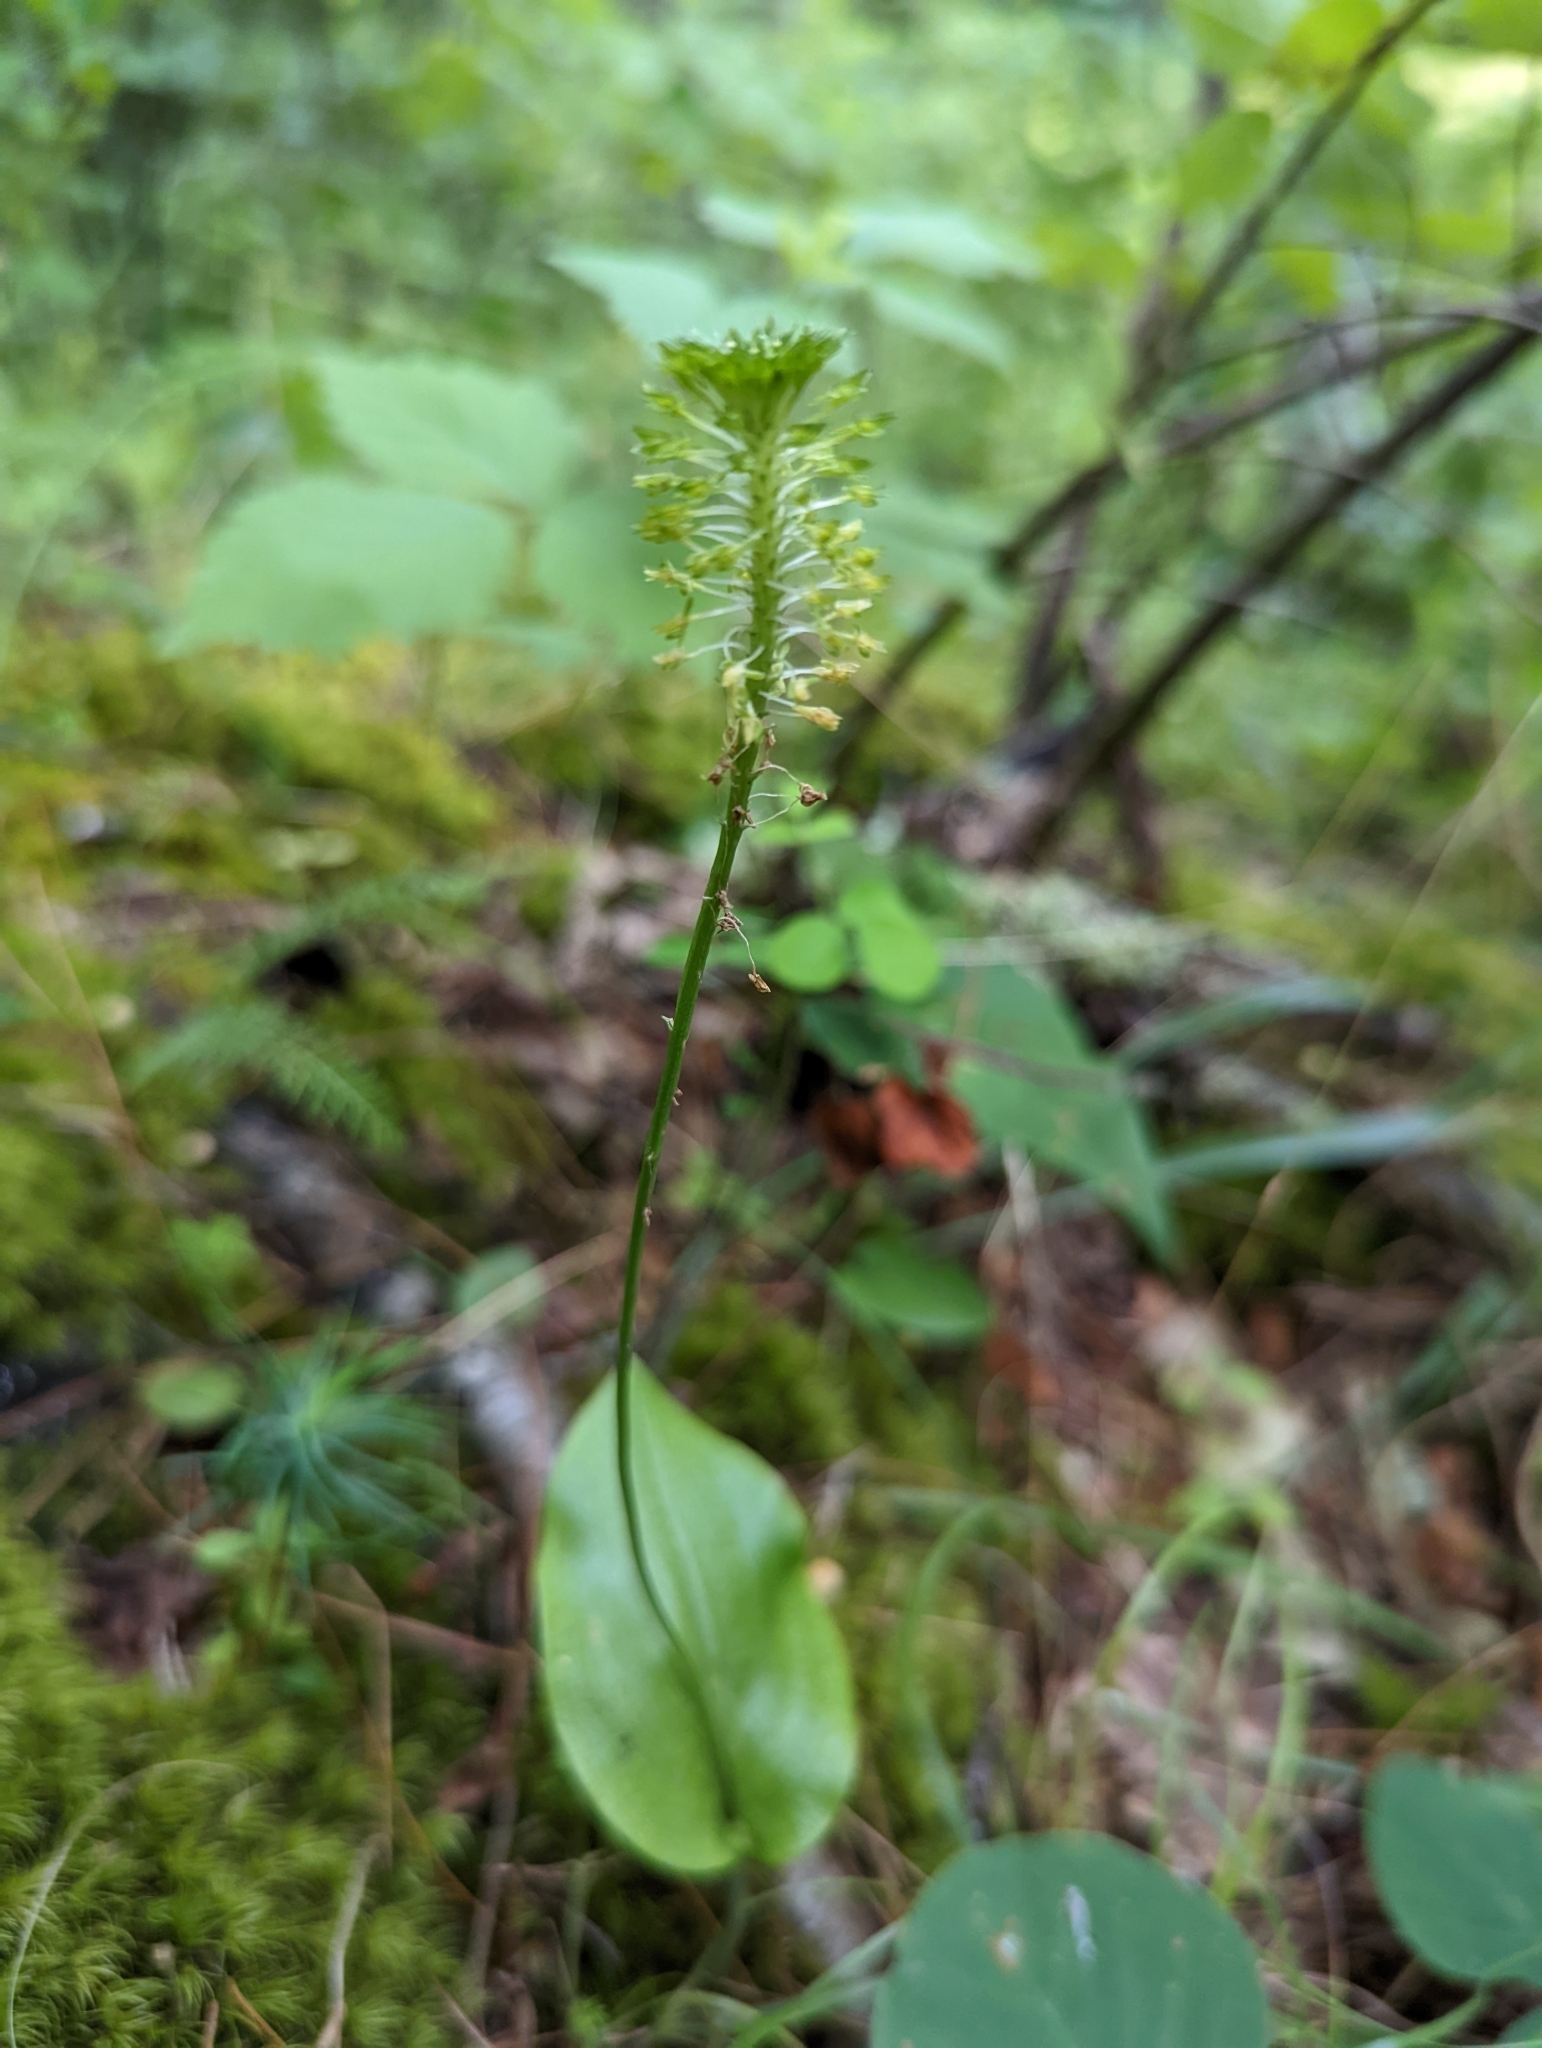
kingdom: Plantae
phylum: Tracheophyta
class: Liliopsida
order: Asparagales
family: Orchidaceae
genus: Malaxis
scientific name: Malaxis unifolia
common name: Green adder's-mouth
